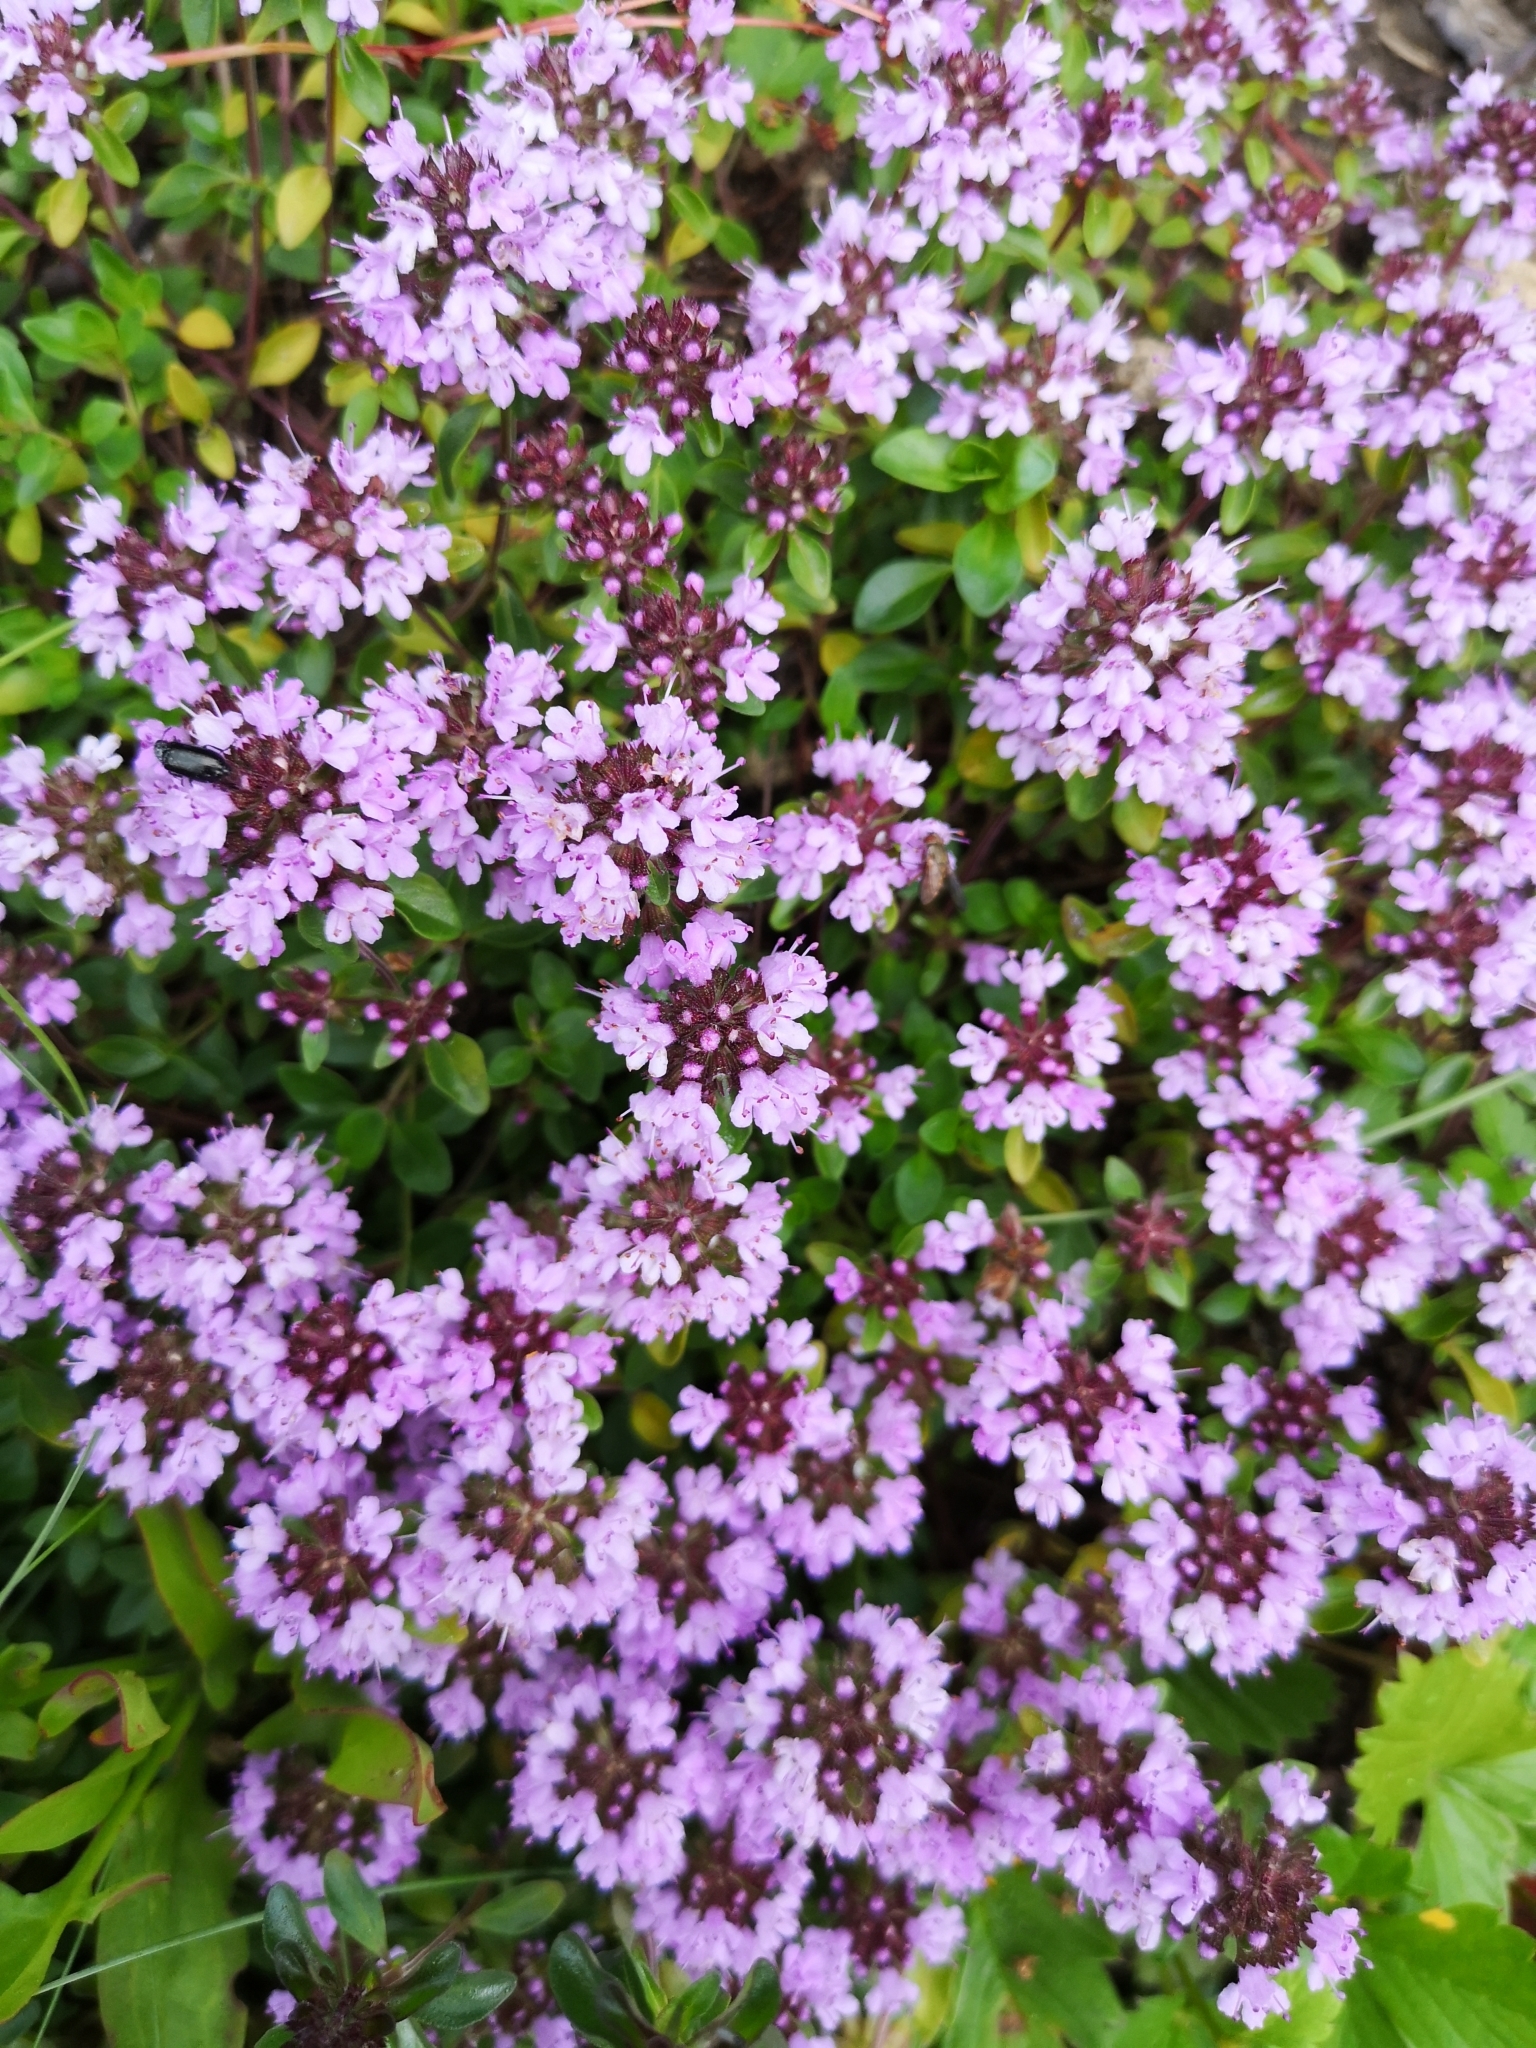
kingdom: Plantae
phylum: Tracheophyta
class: Magnoliopsida
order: Lamiales
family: Lamiaceae
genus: Thymus
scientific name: Thymus pulegioides
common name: Large thyme
